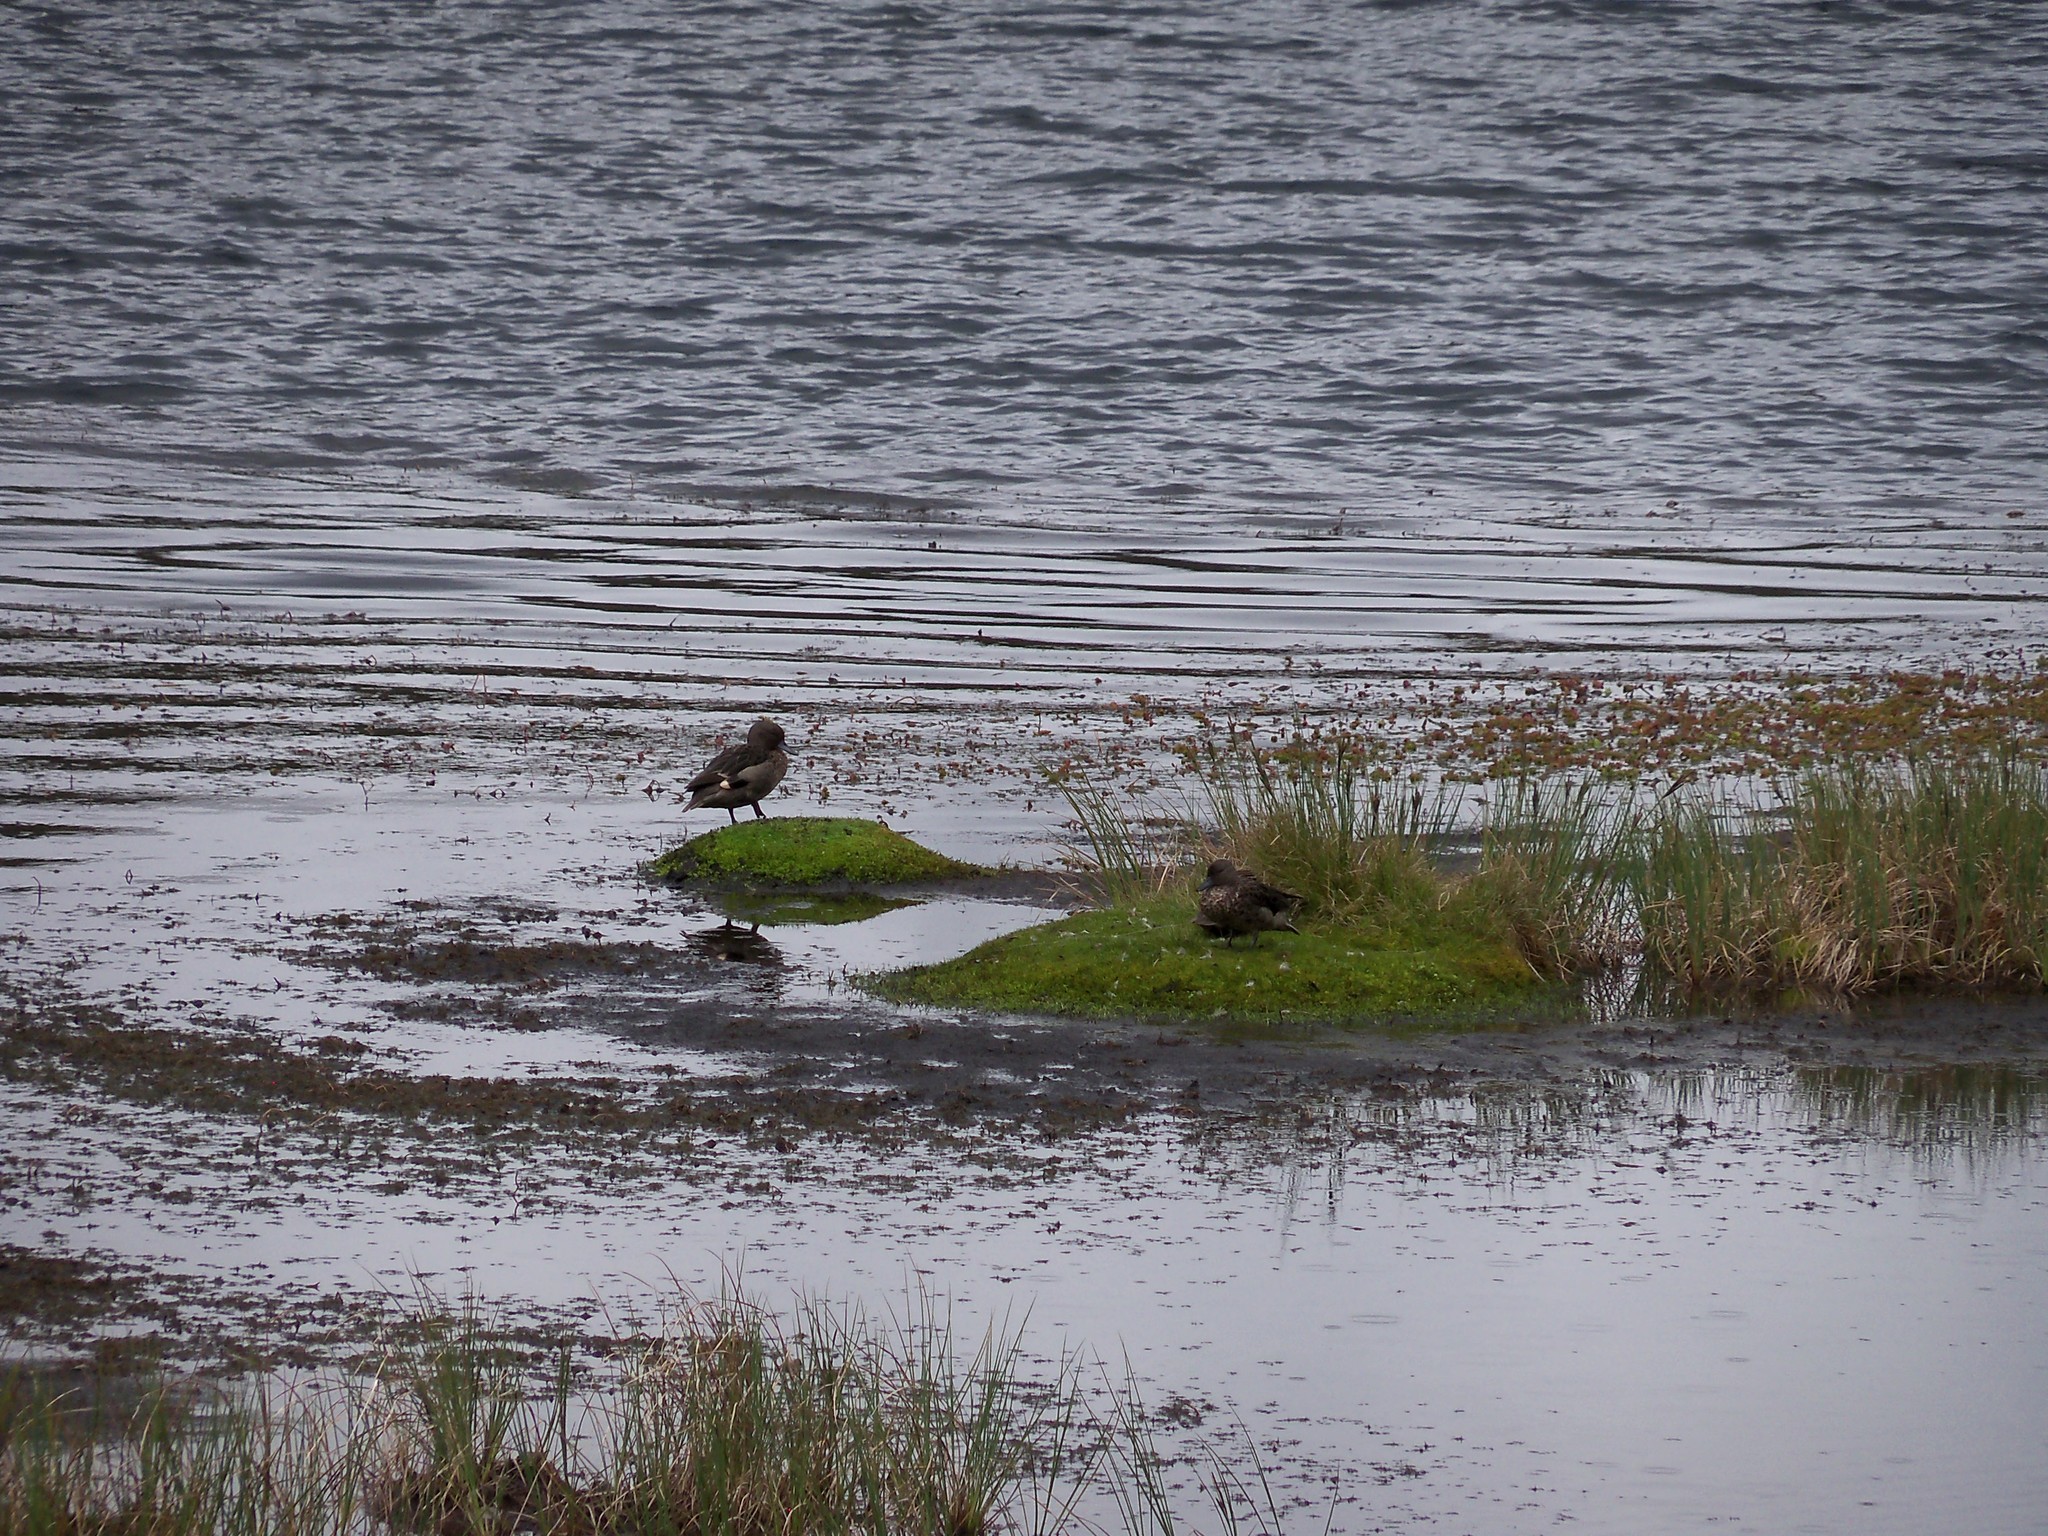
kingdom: Animalia
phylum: Chordata
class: Aves
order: Anseriformes
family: Anatidae
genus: Anas
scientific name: Anas andium
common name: Andean teal
